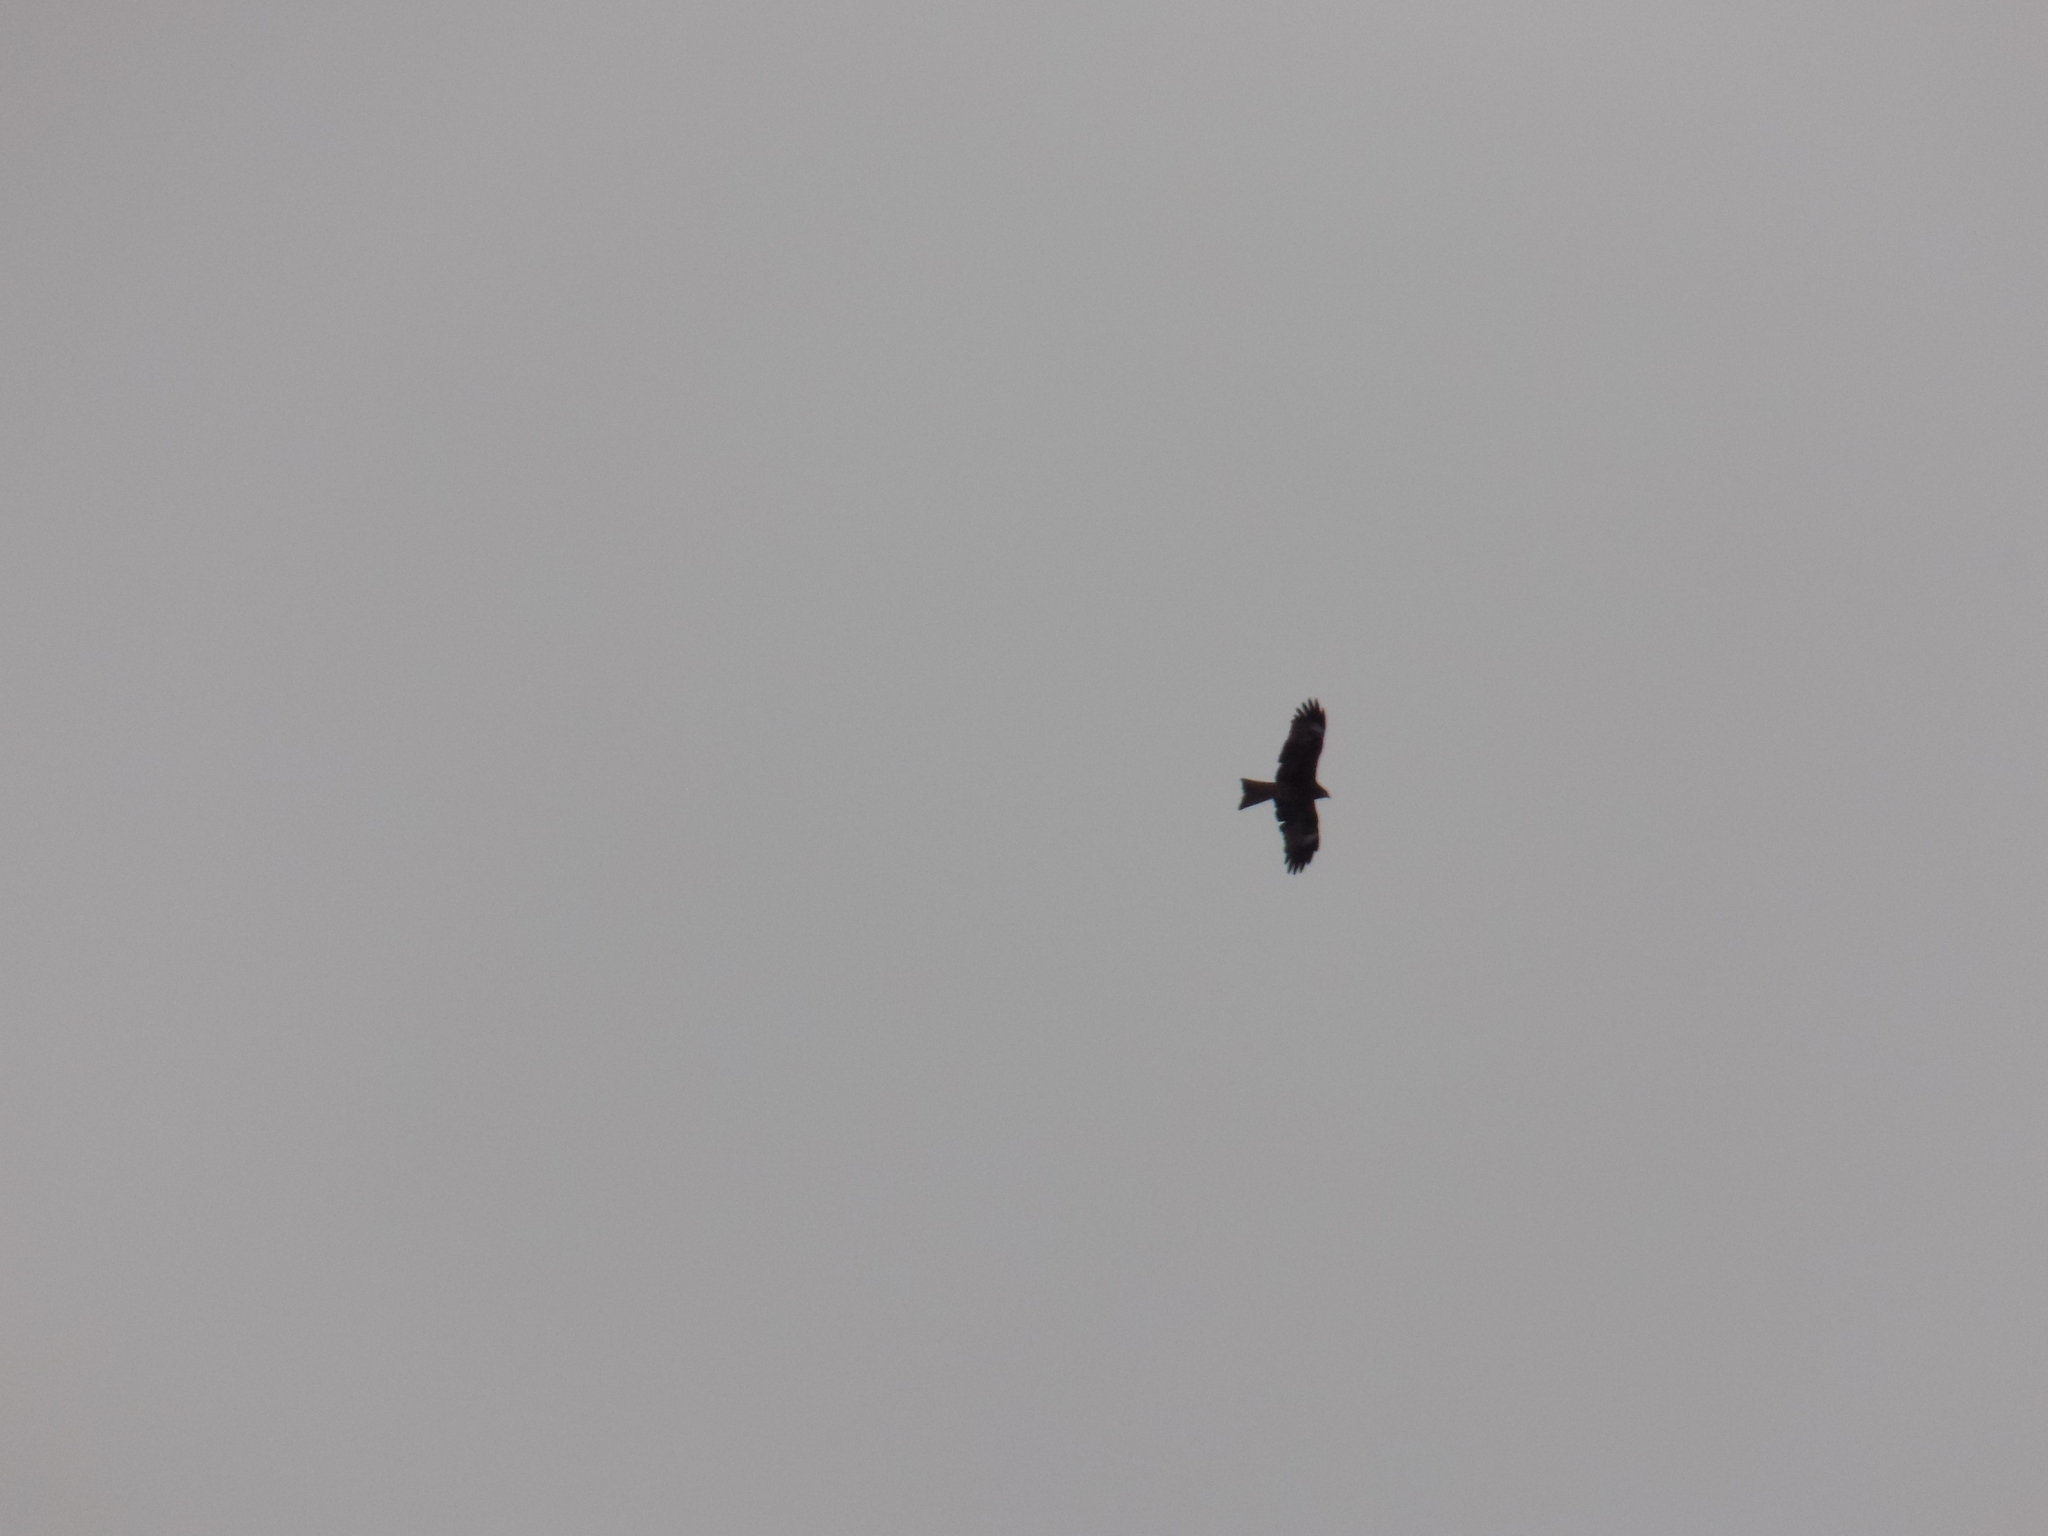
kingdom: Animalia
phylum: Chordata
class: Aves
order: Accipitriformes
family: Accipitridae
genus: Milvus
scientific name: Milvus migrans
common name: Black kite
